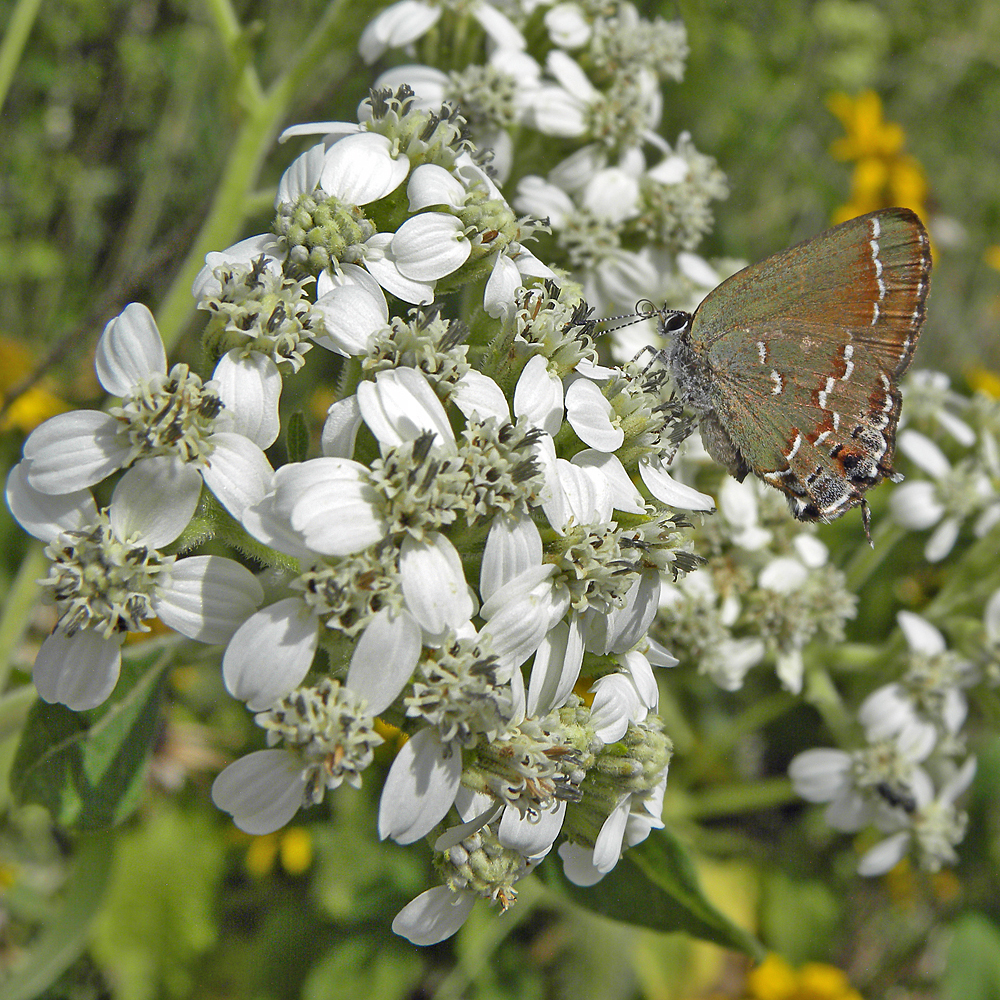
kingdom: Animalia
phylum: Arthropoda
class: Insecta
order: Lepidoptera
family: Lycaenidae
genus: Mitoura
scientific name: Mitoura gryneus
